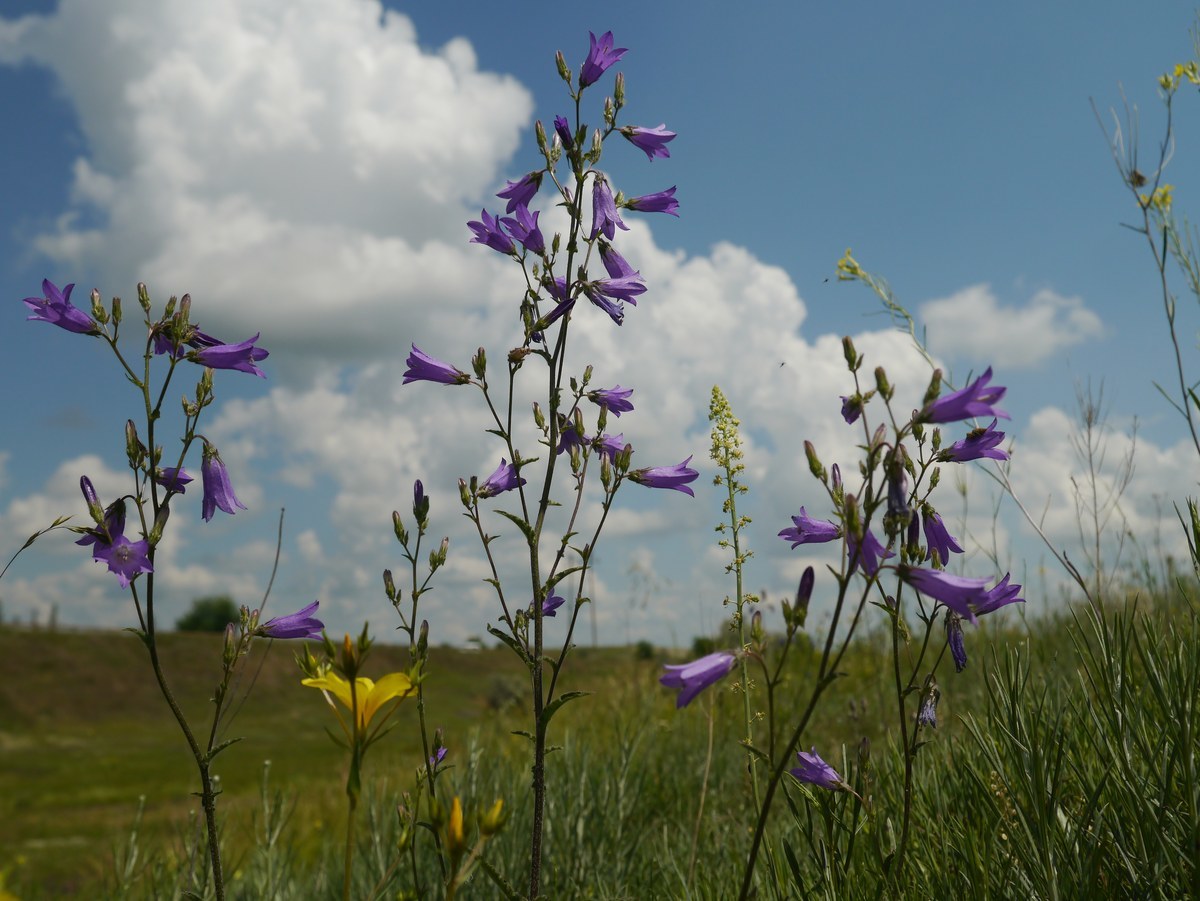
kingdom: Plantae
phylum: Tracheophyta
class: Magnoliopsida
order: Asterales
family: Campanulaceae
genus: Campanula
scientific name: Campanula sibirica
